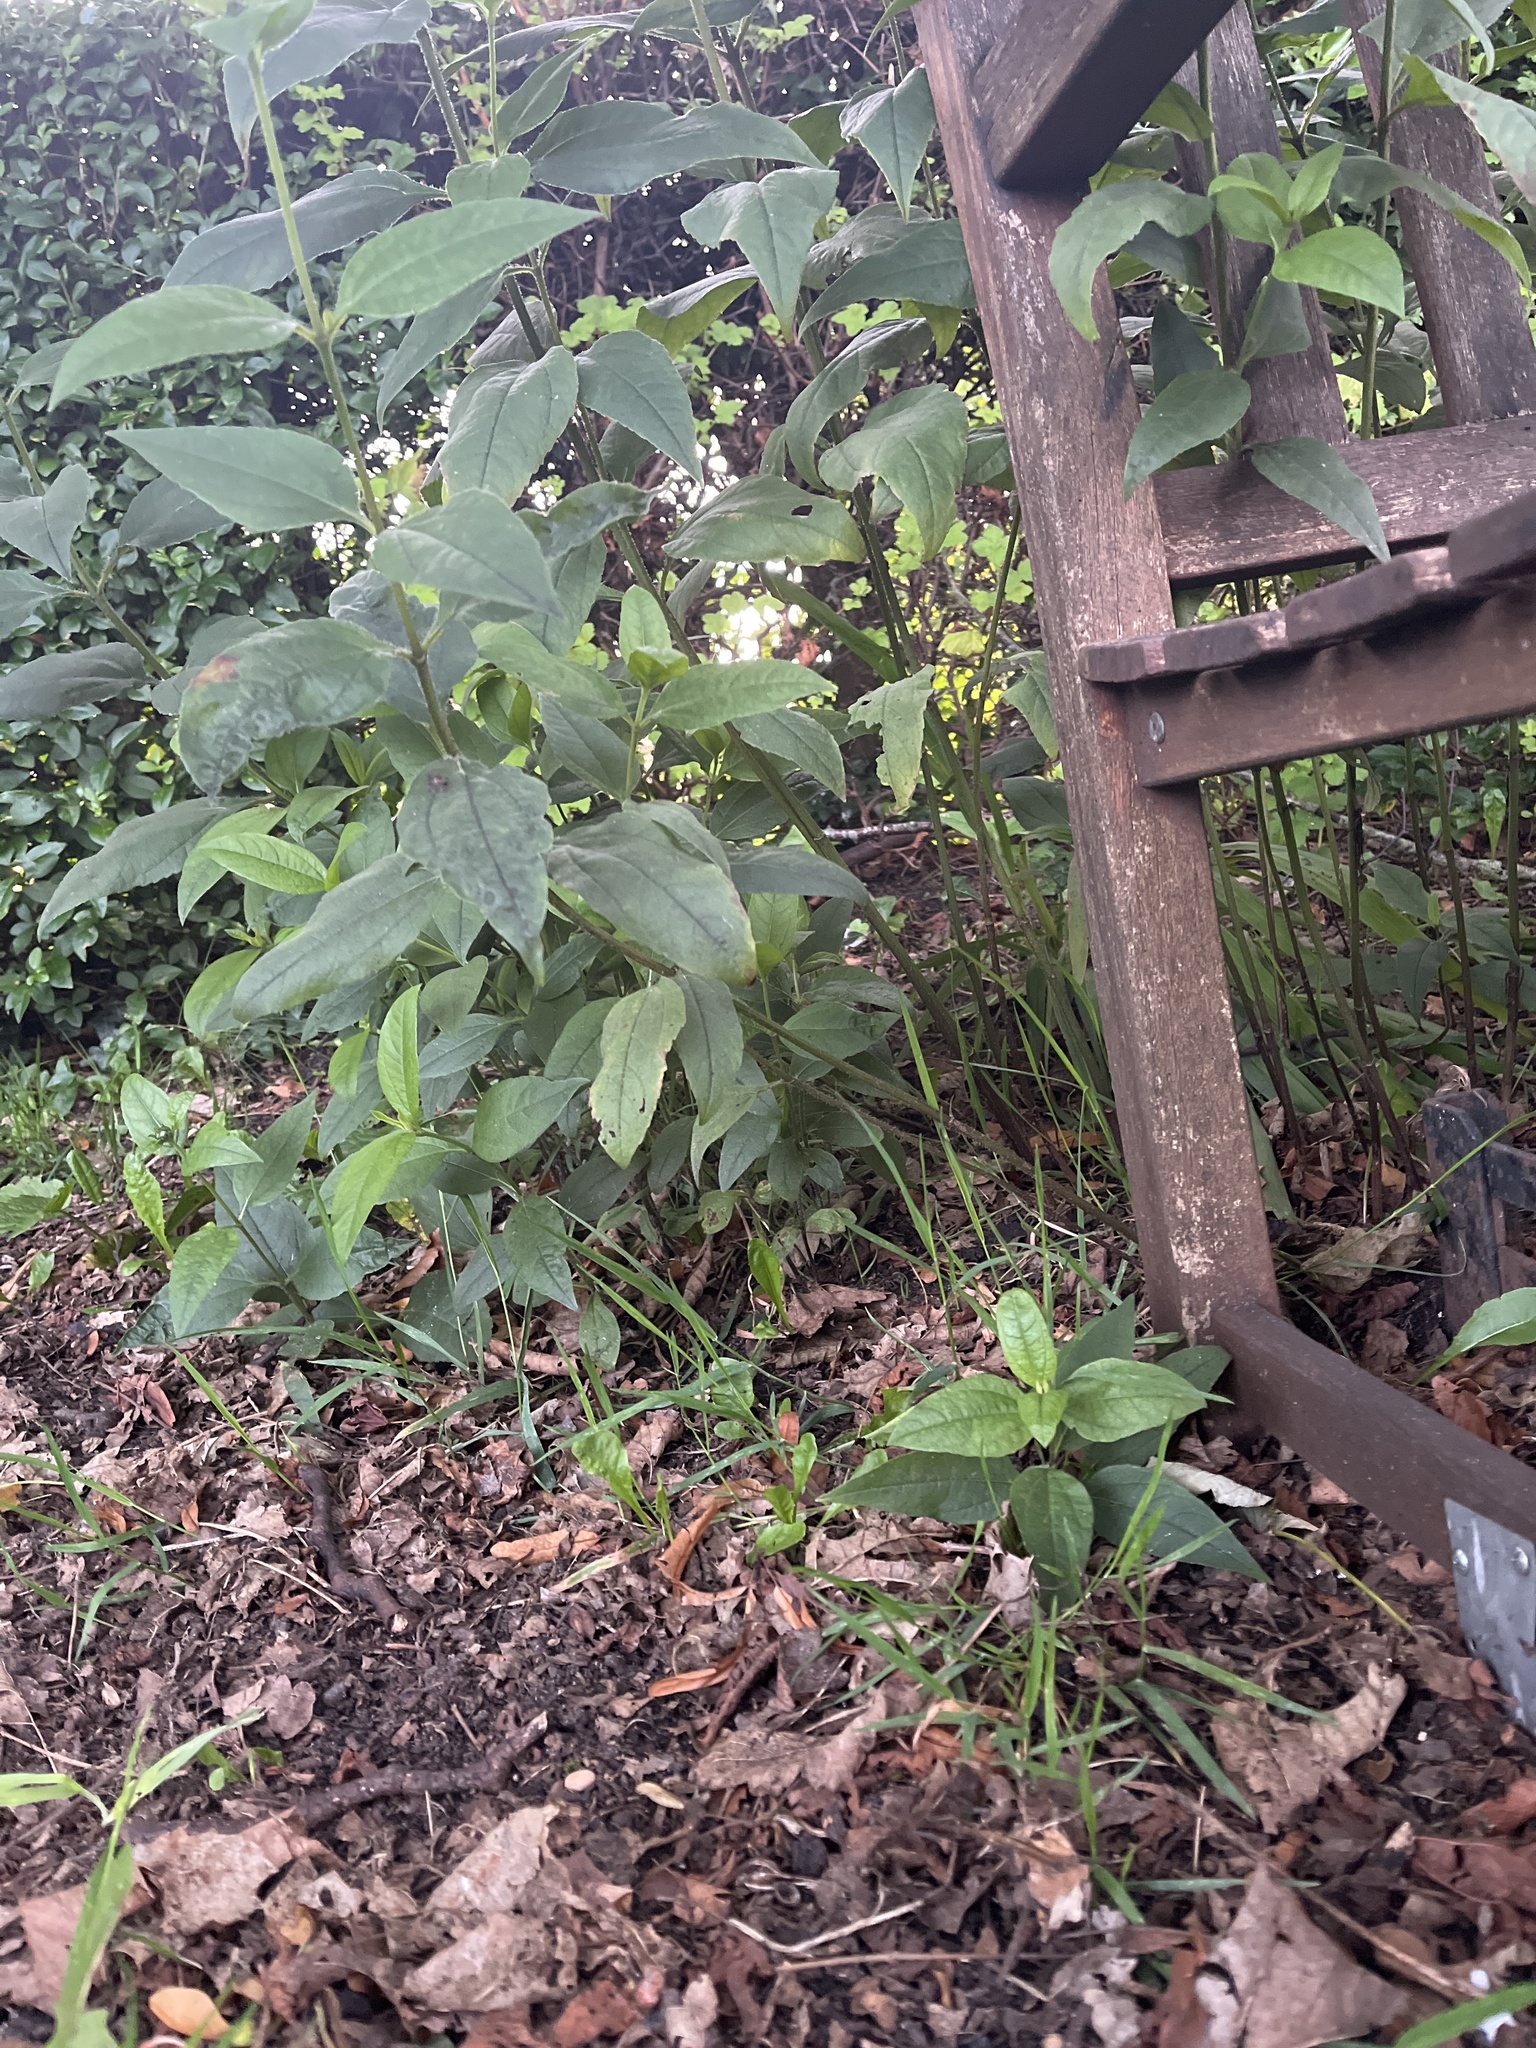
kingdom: Plantae
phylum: Tracheophyta
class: Magnoliopsida
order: Asterales
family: Asteraceae
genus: Helianthus
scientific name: Helianthus laetiflorus
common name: Perennial sunflower
